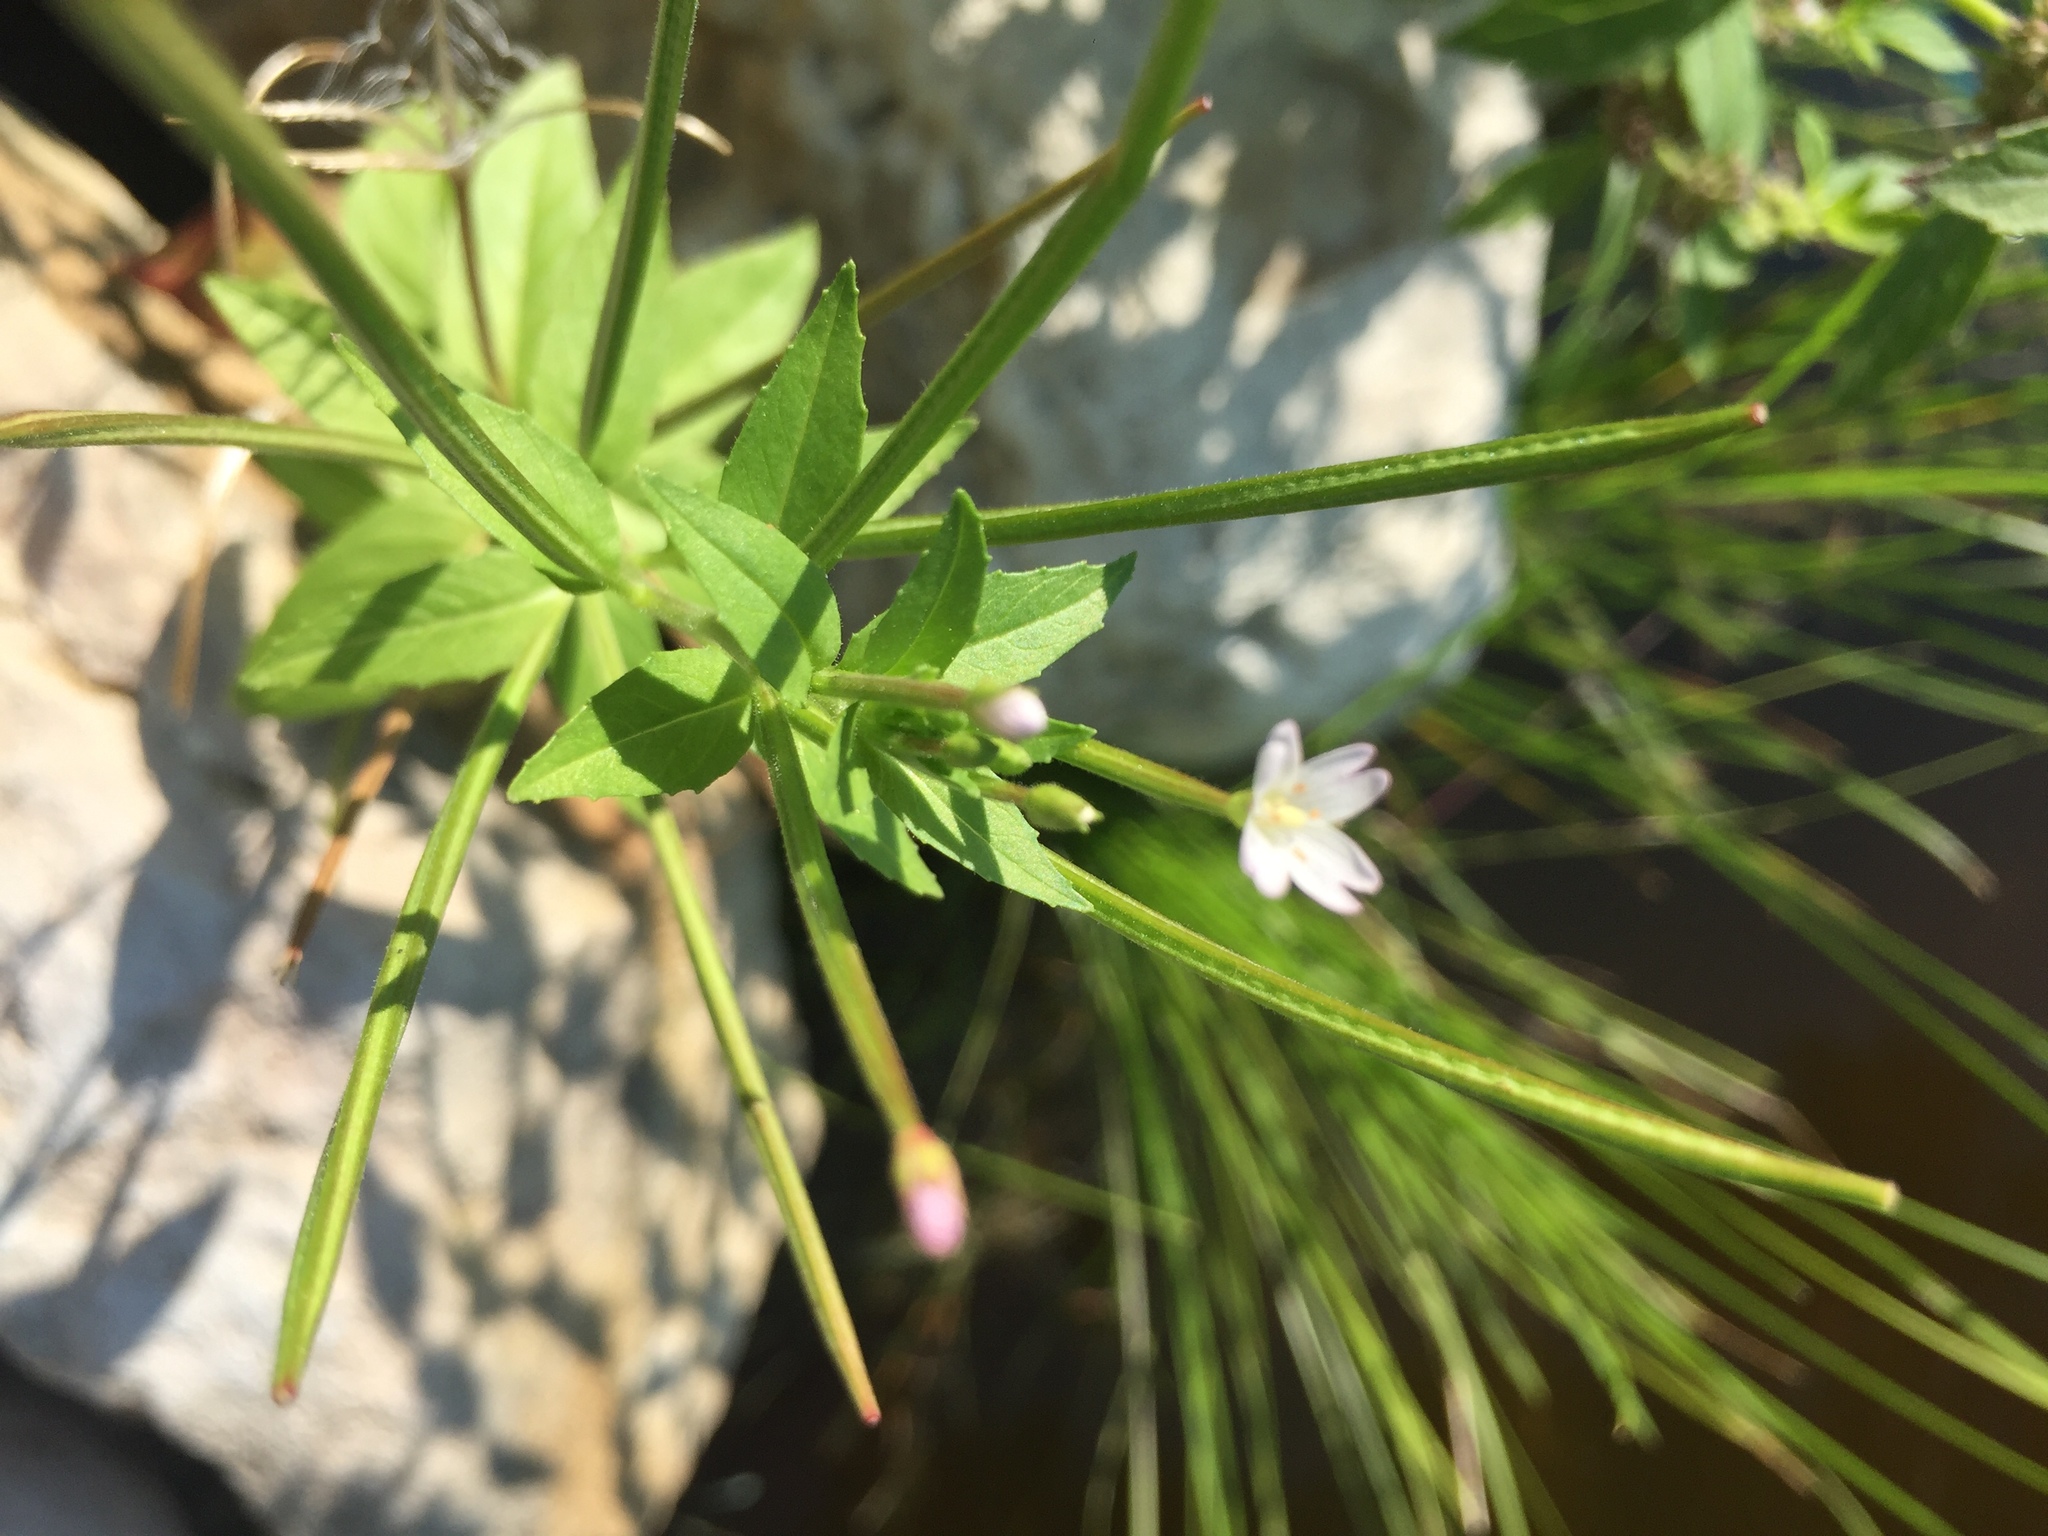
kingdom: Plantae
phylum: Tracheophyta
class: Magnoliopsida
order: Myrtales
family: Onagraceae
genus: Epilobium
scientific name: Epilobium ciliatum
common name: American willowherb
